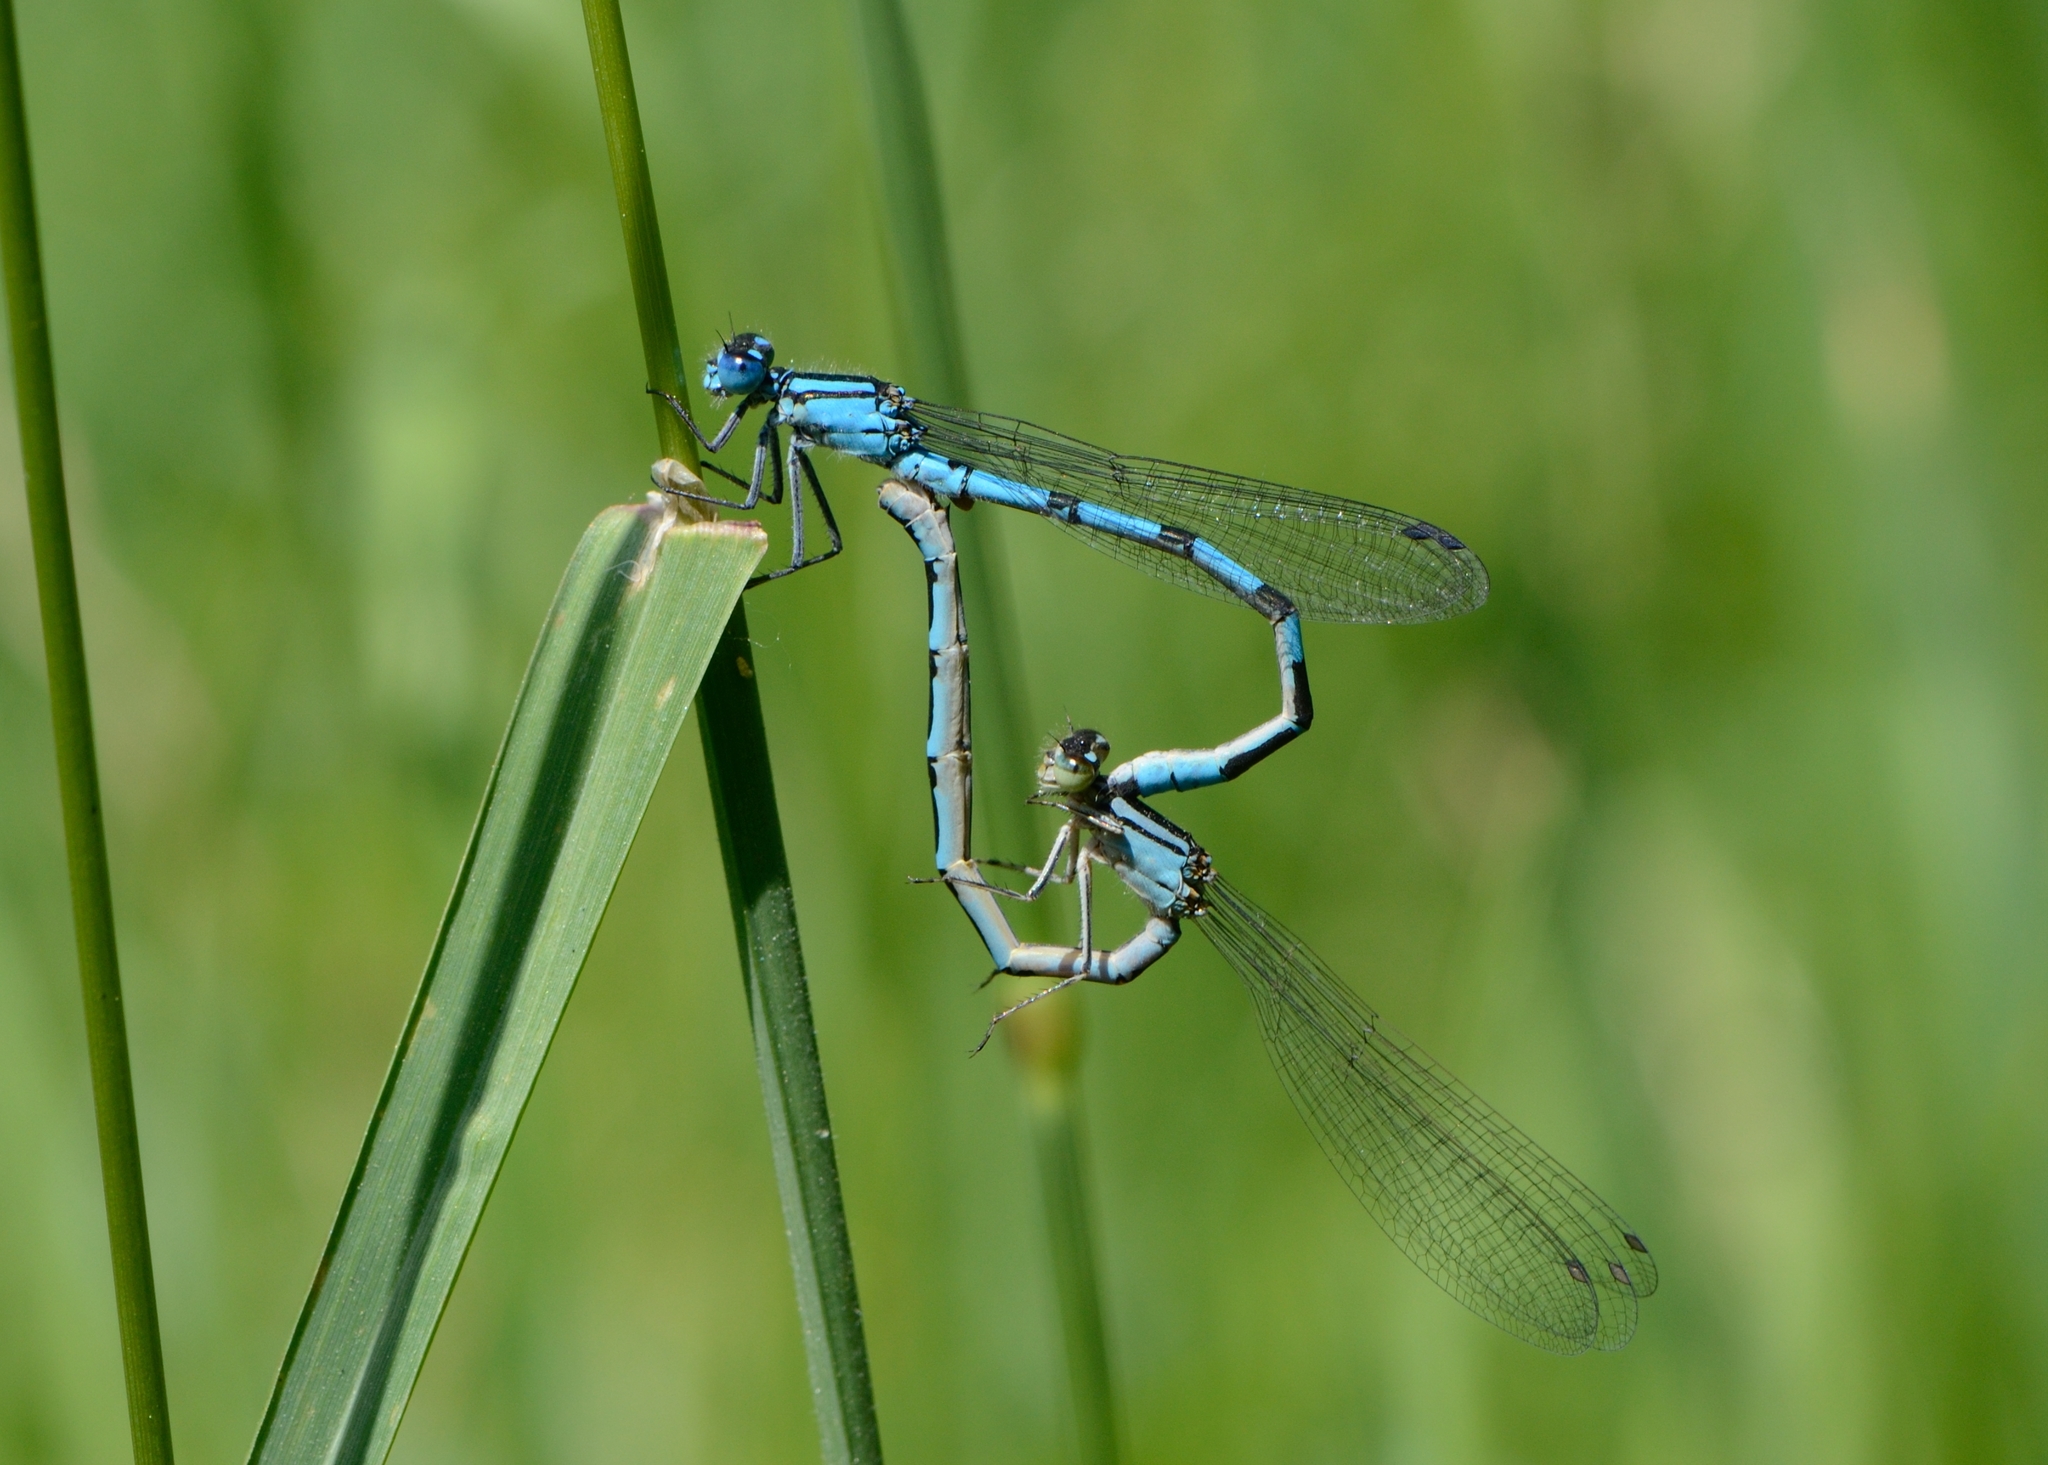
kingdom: Animalia
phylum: Arthropoda
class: Insecta
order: Odonata
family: Coenagrionidae
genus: Enallagma
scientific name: Enallagma cyathigerum
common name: Common blue damselfly
